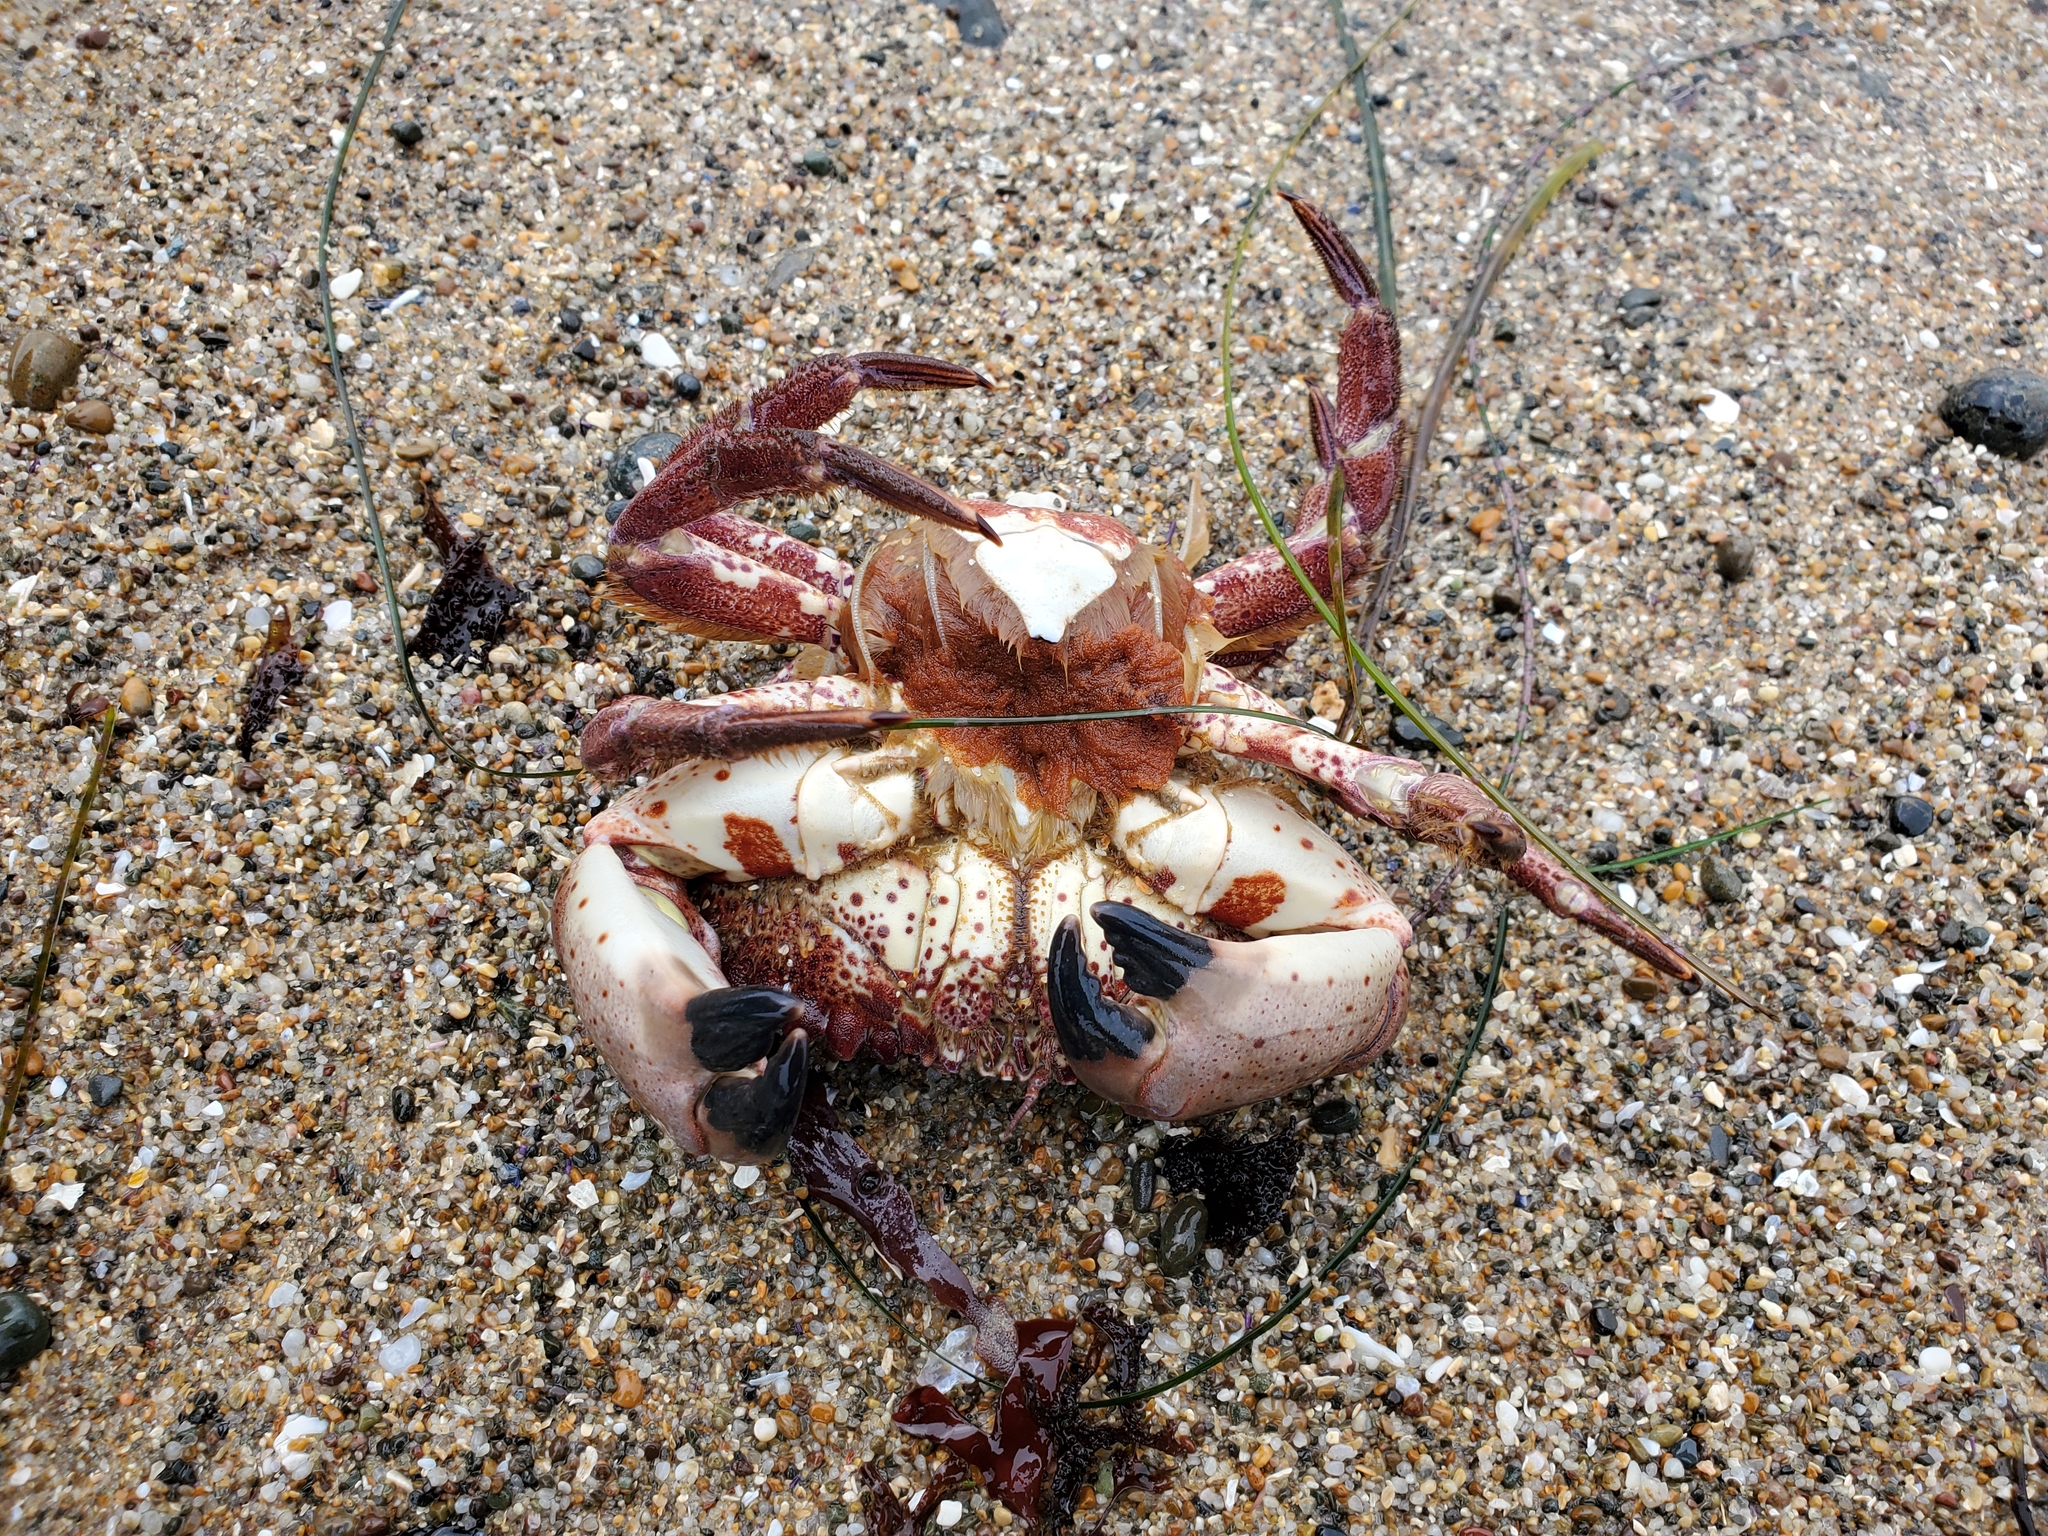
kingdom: Animalia
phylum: Arthropoda
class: Malacostraca
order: Decapoda
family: Cancridae
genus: Romaleon
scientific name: Romaleon antennarium
